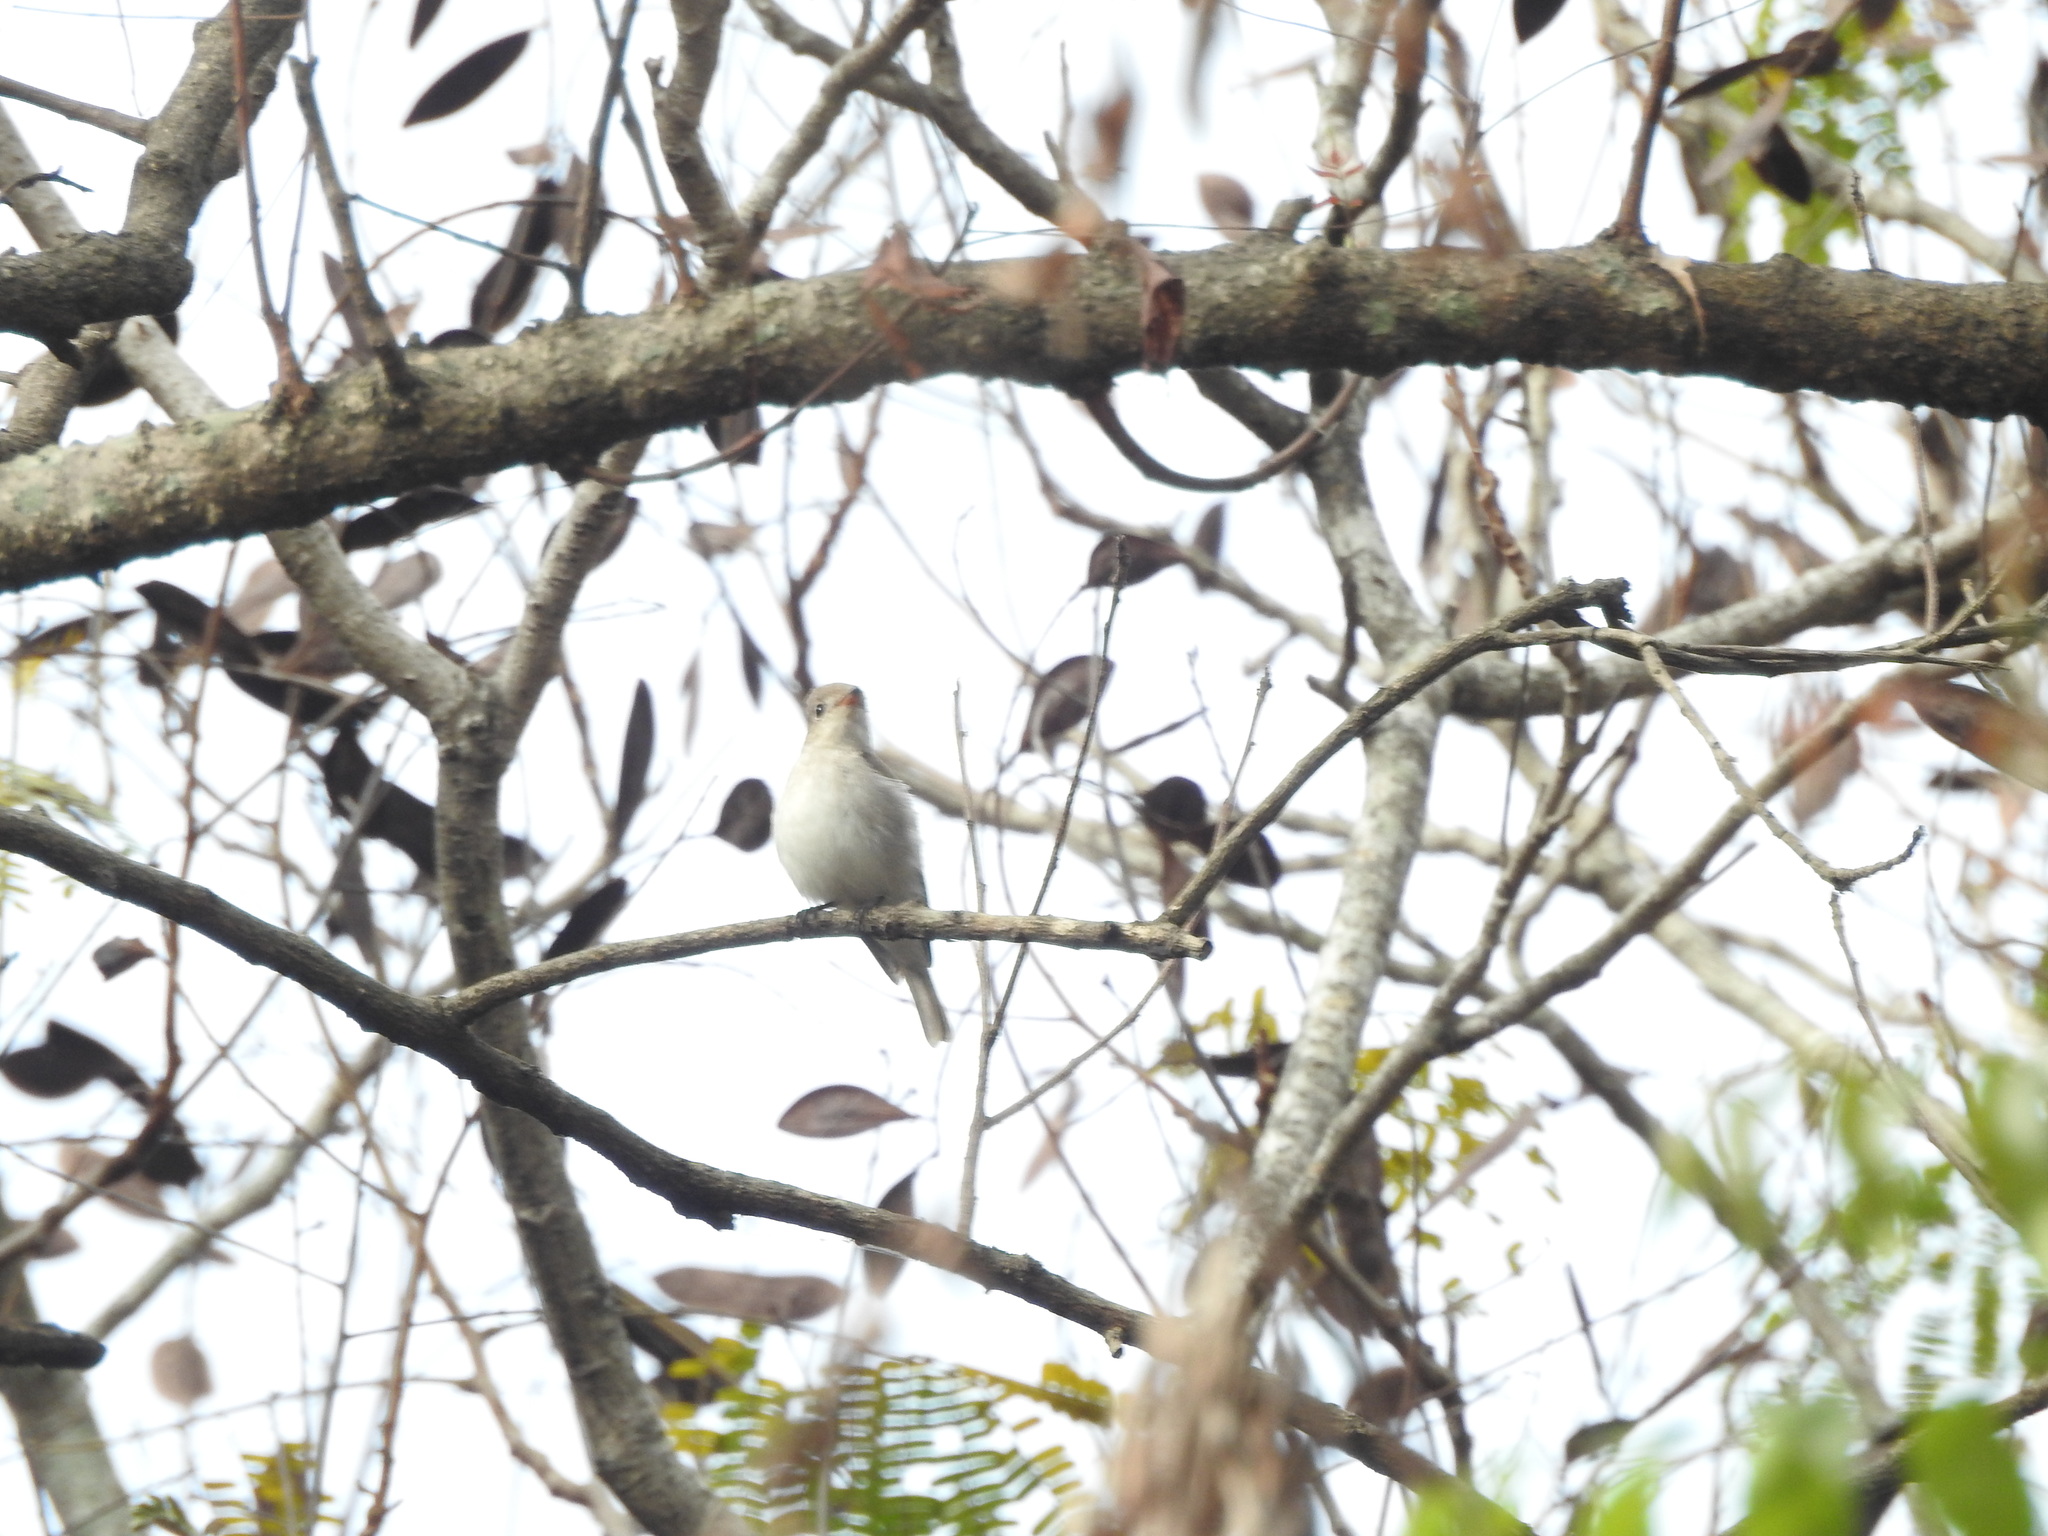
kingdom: Animalia
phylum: Chordata
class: Aves
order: Passeriformes
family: Muscicapidae
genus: Muscicapa
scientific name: Muscicapa latirostris
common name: Asian brown flycatcher
